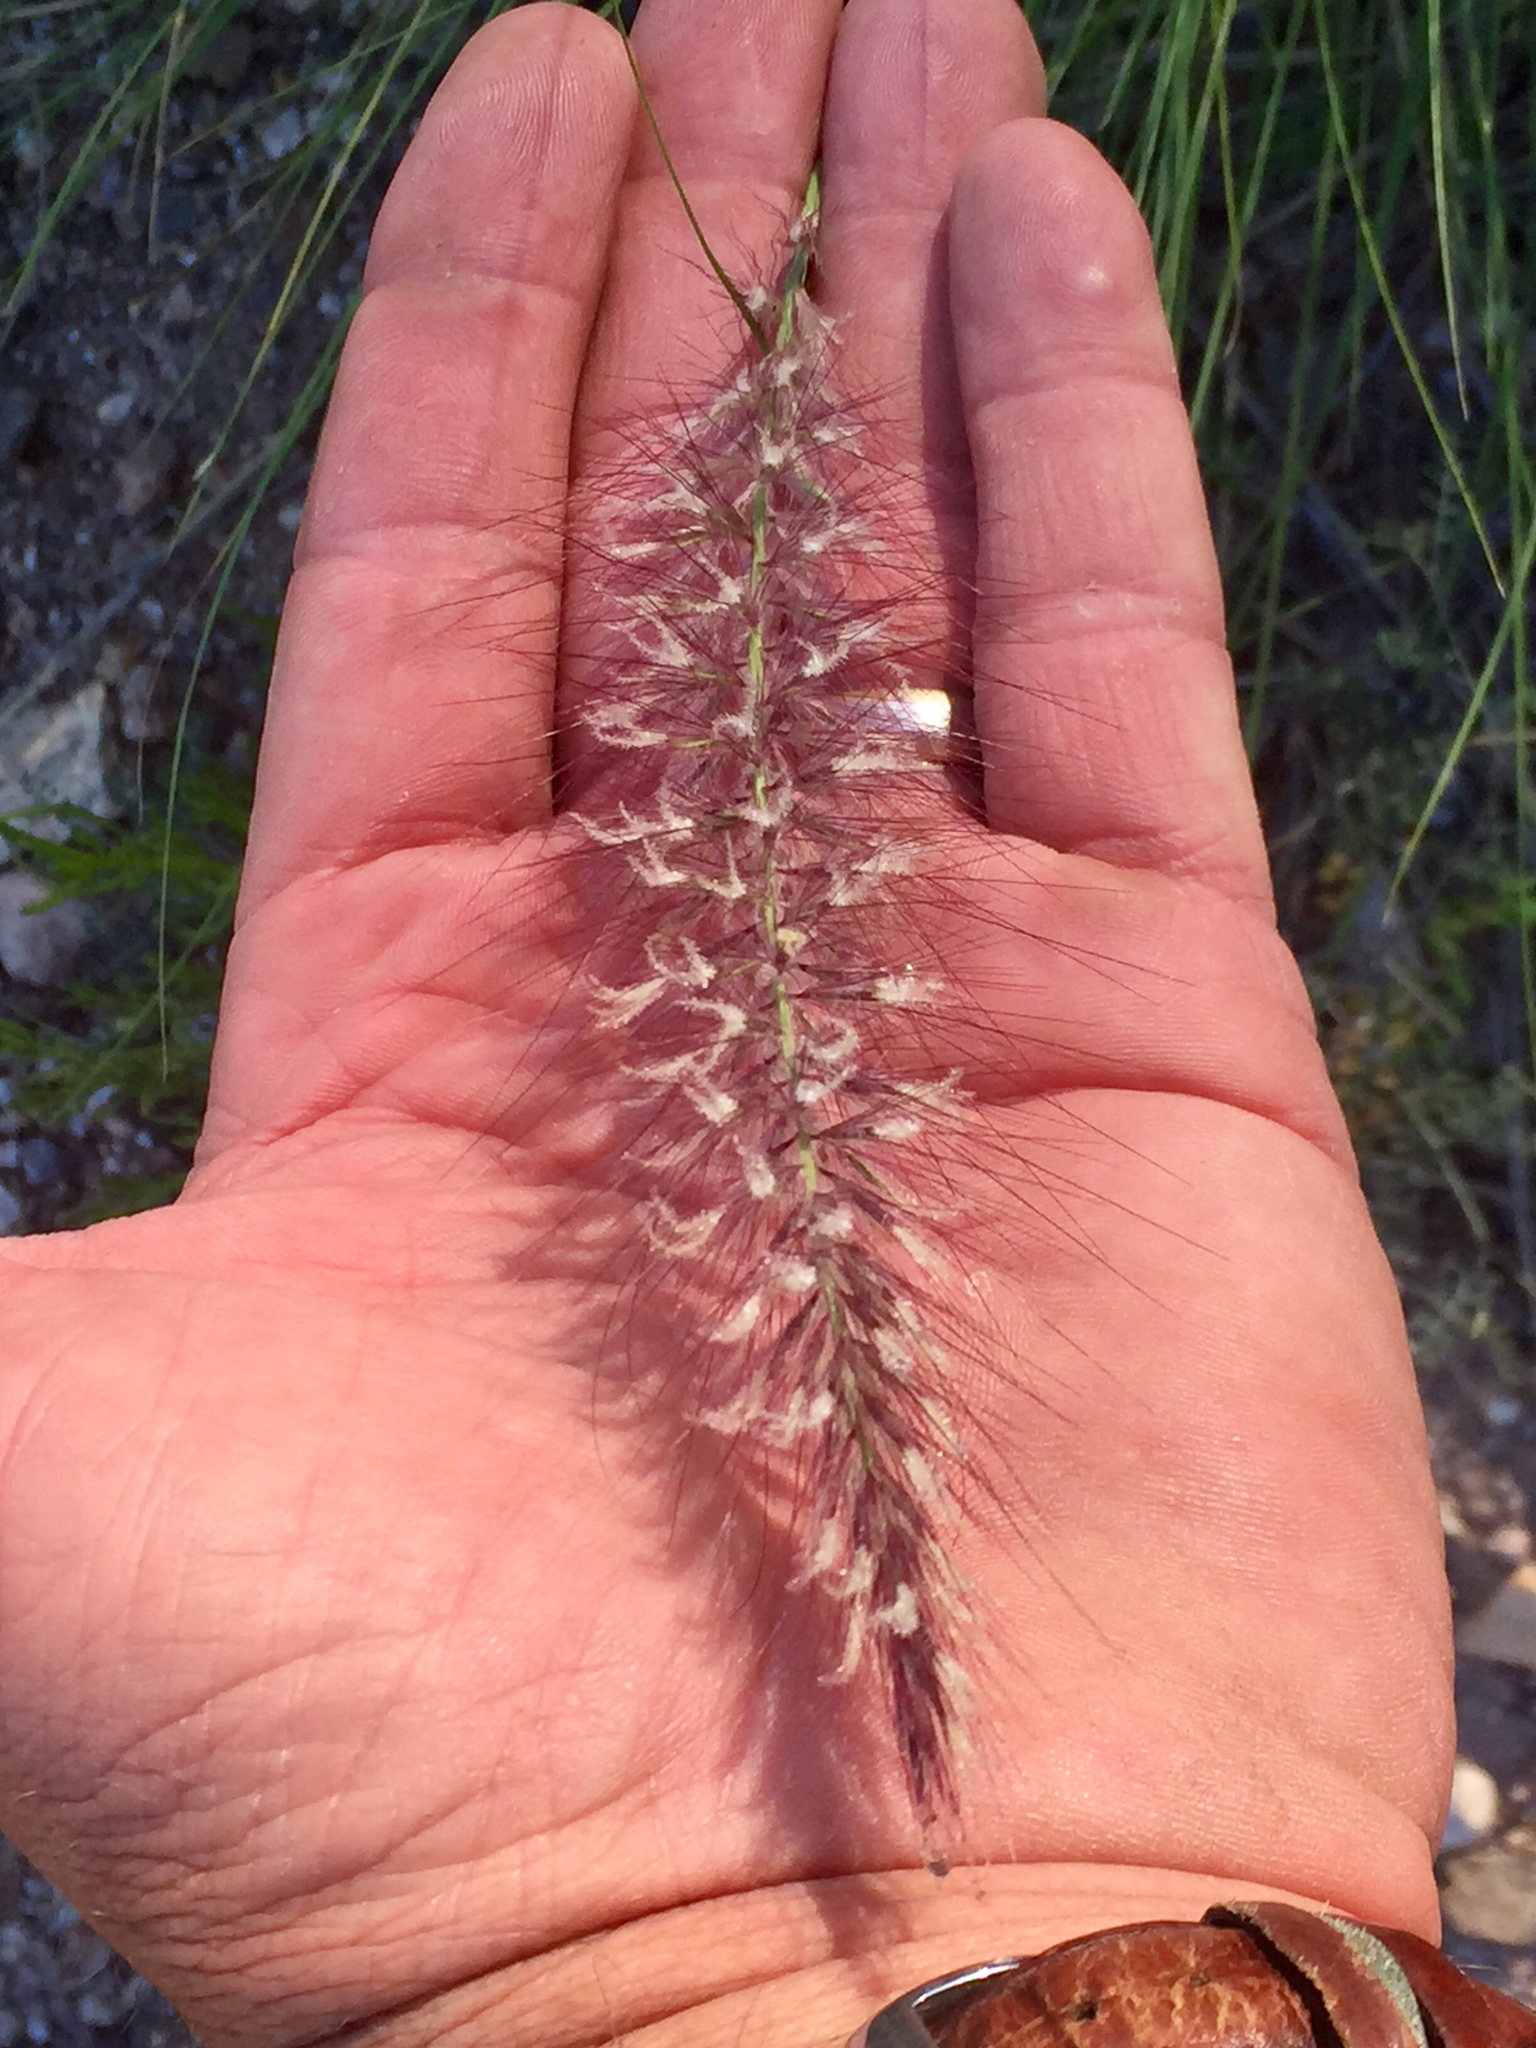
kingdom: Plantae
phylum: Tracheophyta
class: Liliopsida
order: Poales
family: Poaceae
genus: Cenchrus
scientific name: Cenchrus setaceus
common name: Crimson fountaingrass
